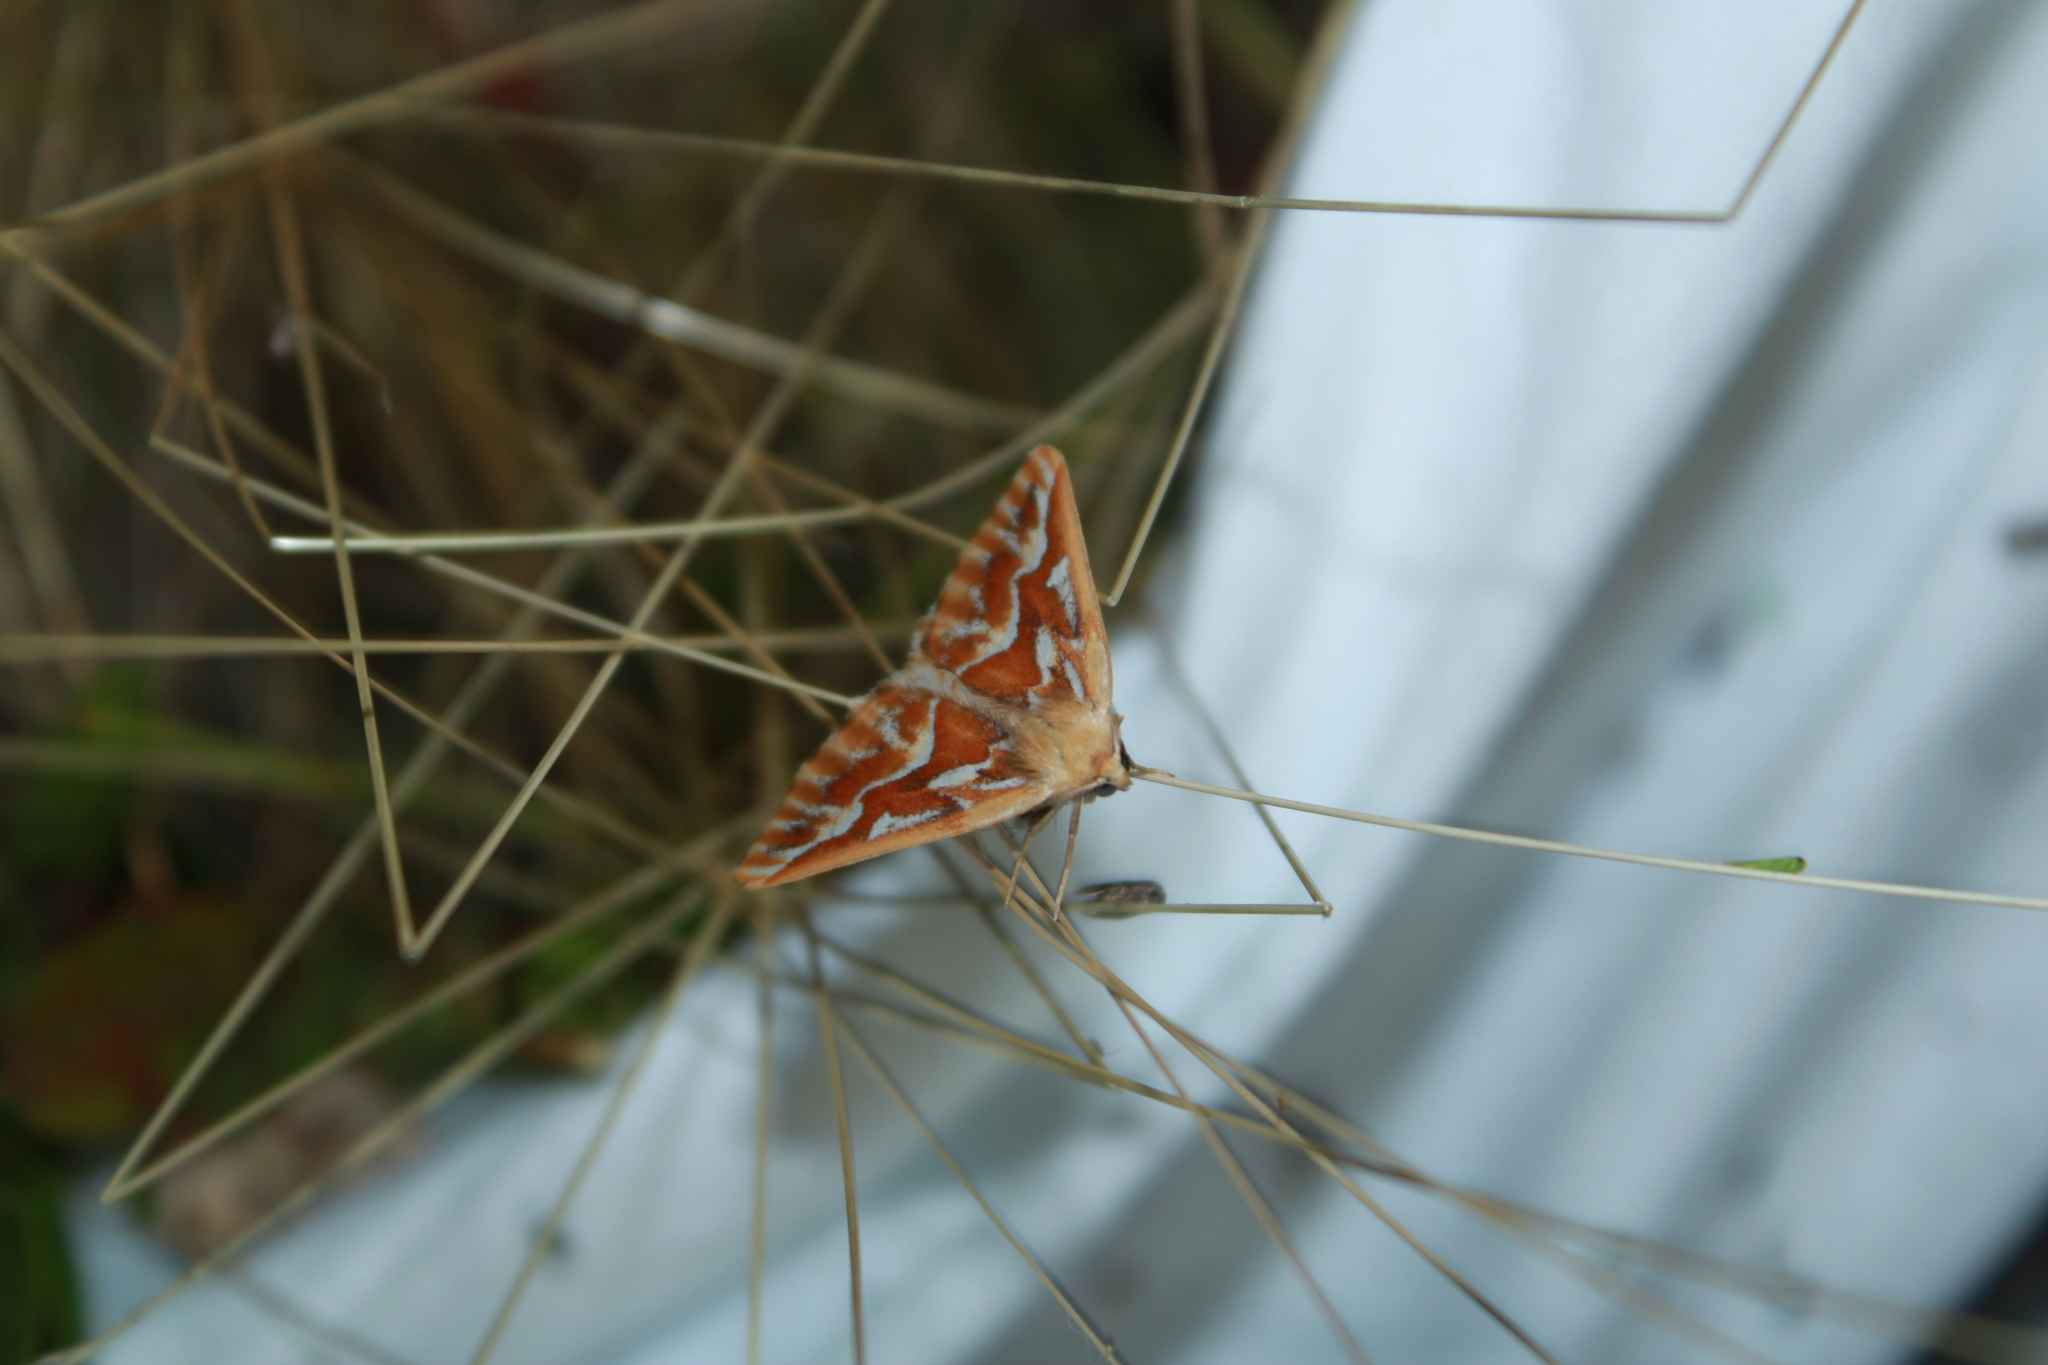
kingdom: Animalia
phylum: Arthropoda
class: Insecta
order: Lepidoptera
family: Geometridae
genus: Caripeta
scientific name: Caripeta piniata
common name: Northern pine looper moth
